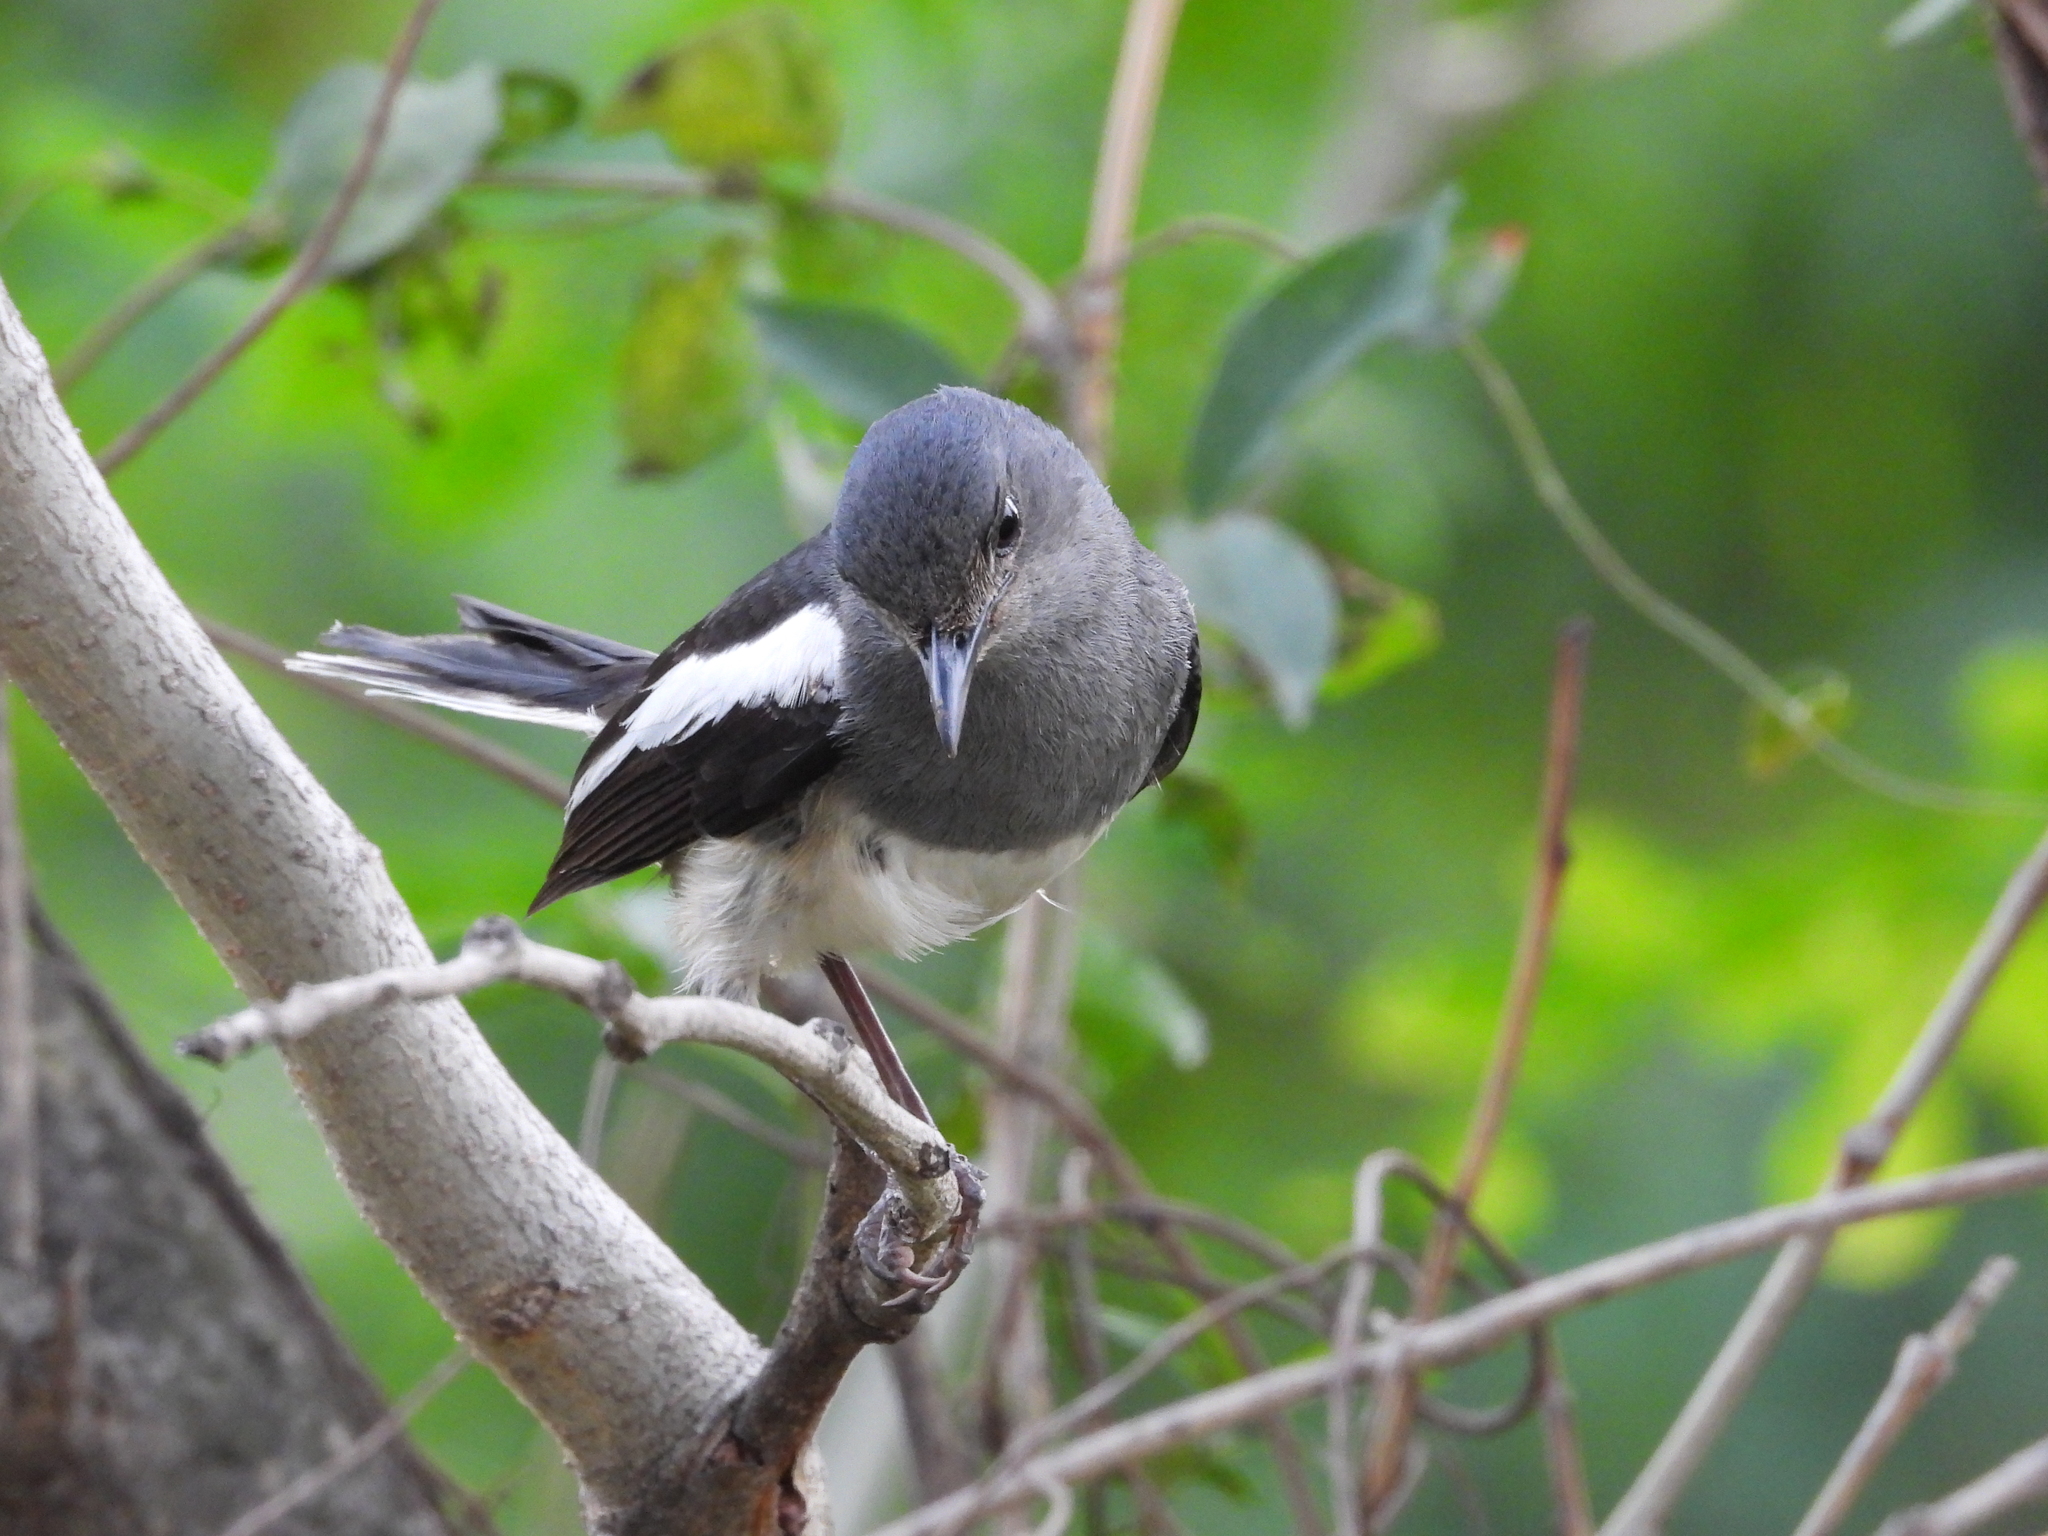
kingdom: Animalia
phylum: Chordata
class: Aves
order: Passeriformes
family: Muscicapidae
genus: Copsychus
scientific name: Copsychus saularis
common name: Oriental magpie-robin
